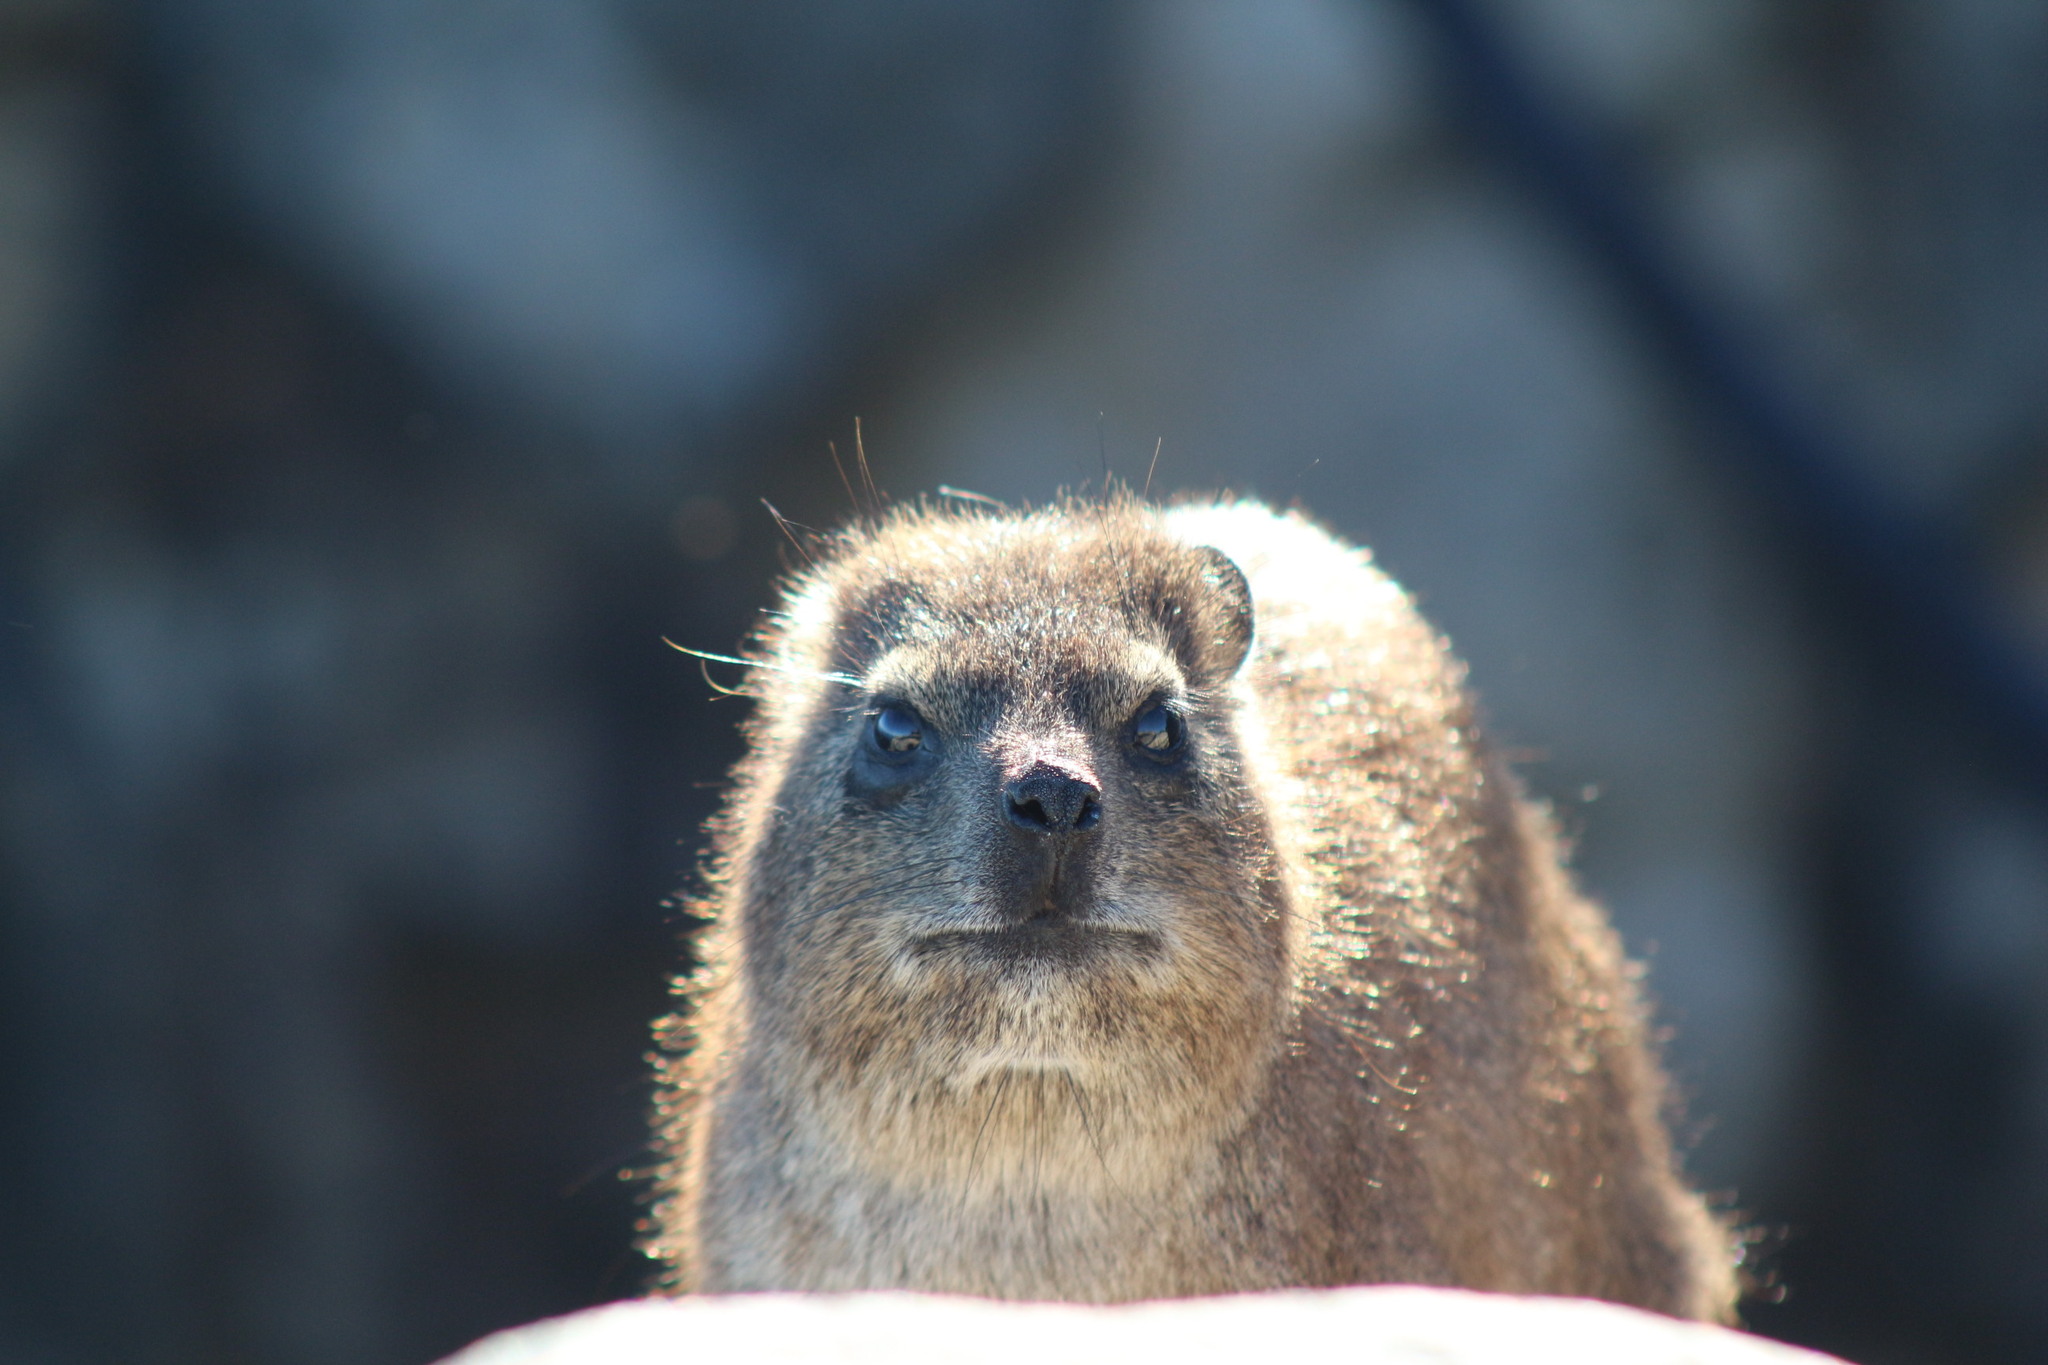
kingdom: Animalia
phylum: Chordata
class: Mammalia
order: Hyracoidea
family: Procaviidae
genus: Procavia
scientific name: Procavia capensis
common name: Rock hyrax
